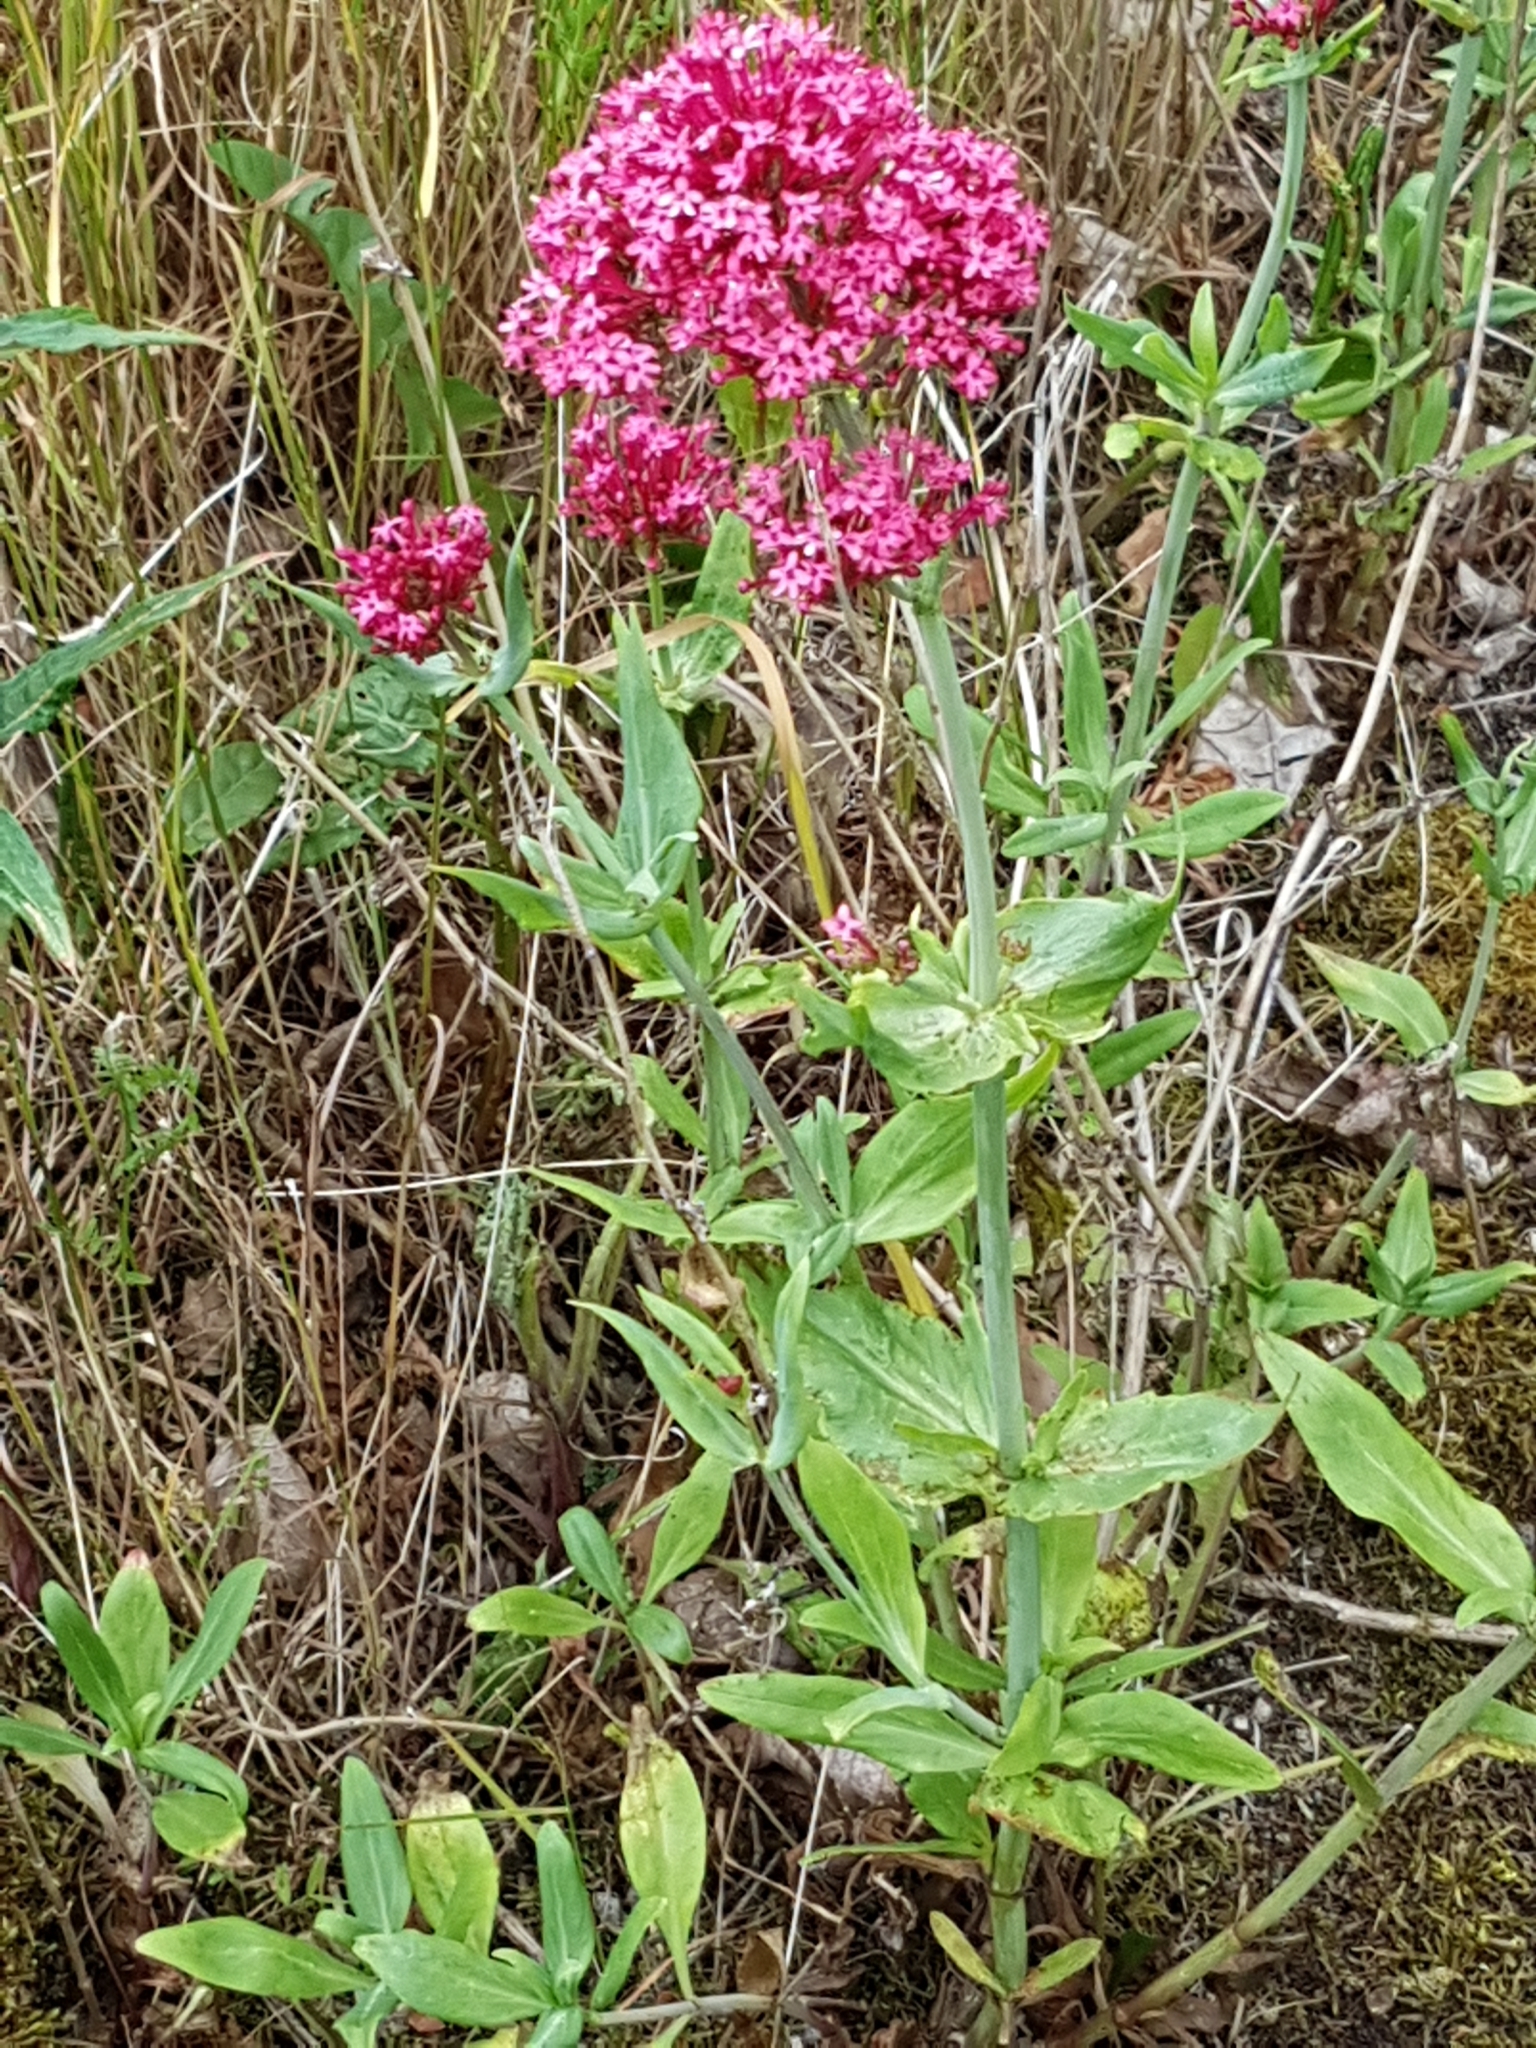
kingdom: Plantae
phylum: Tracheophyta
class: Magnoliopsida
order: Dipsacales
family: Caprifoliaceae
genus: Centranthus
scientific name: Centranthus ruber
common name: Red valerian
